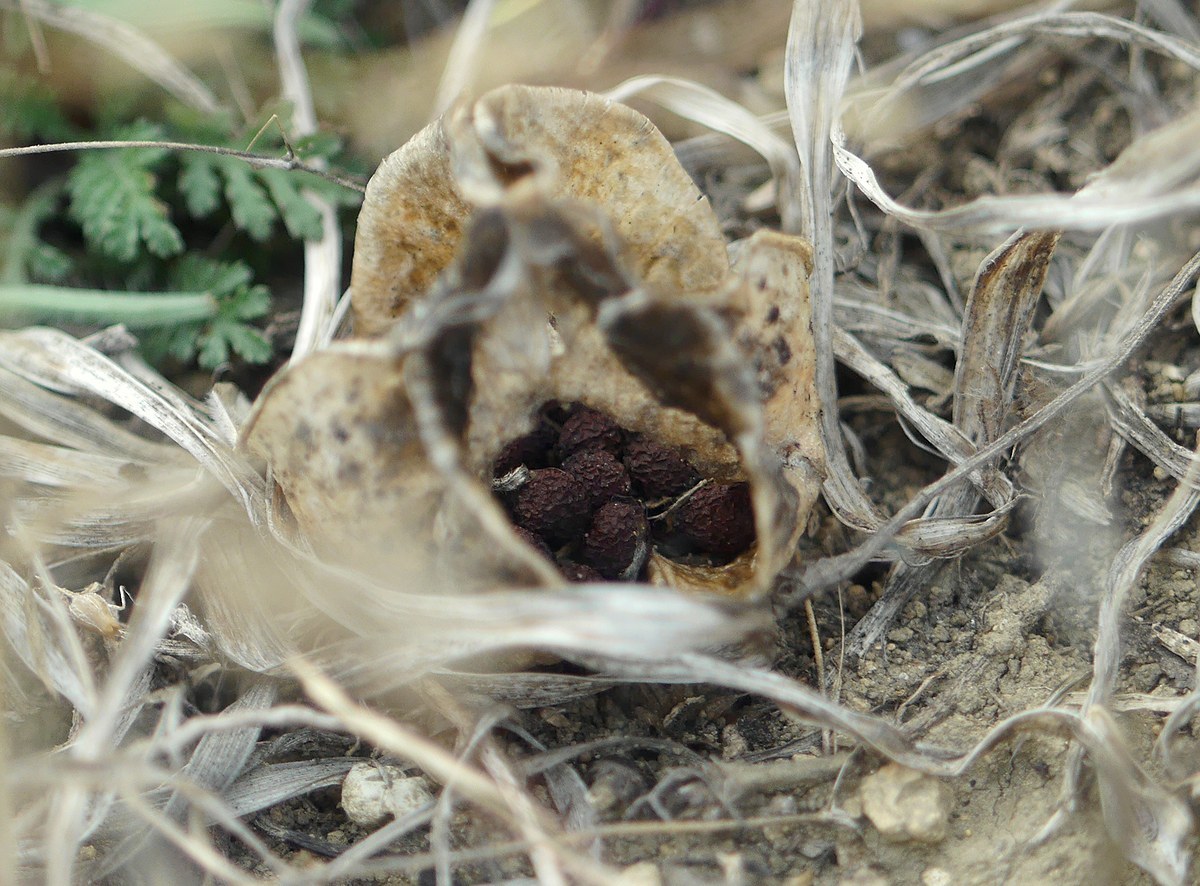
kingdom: Plantae
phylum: Tracheophyta
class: Liliopsida
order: Asparagales
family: Iridaceae
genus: Iris
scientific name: Iris pumila
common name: Dwarf iris
